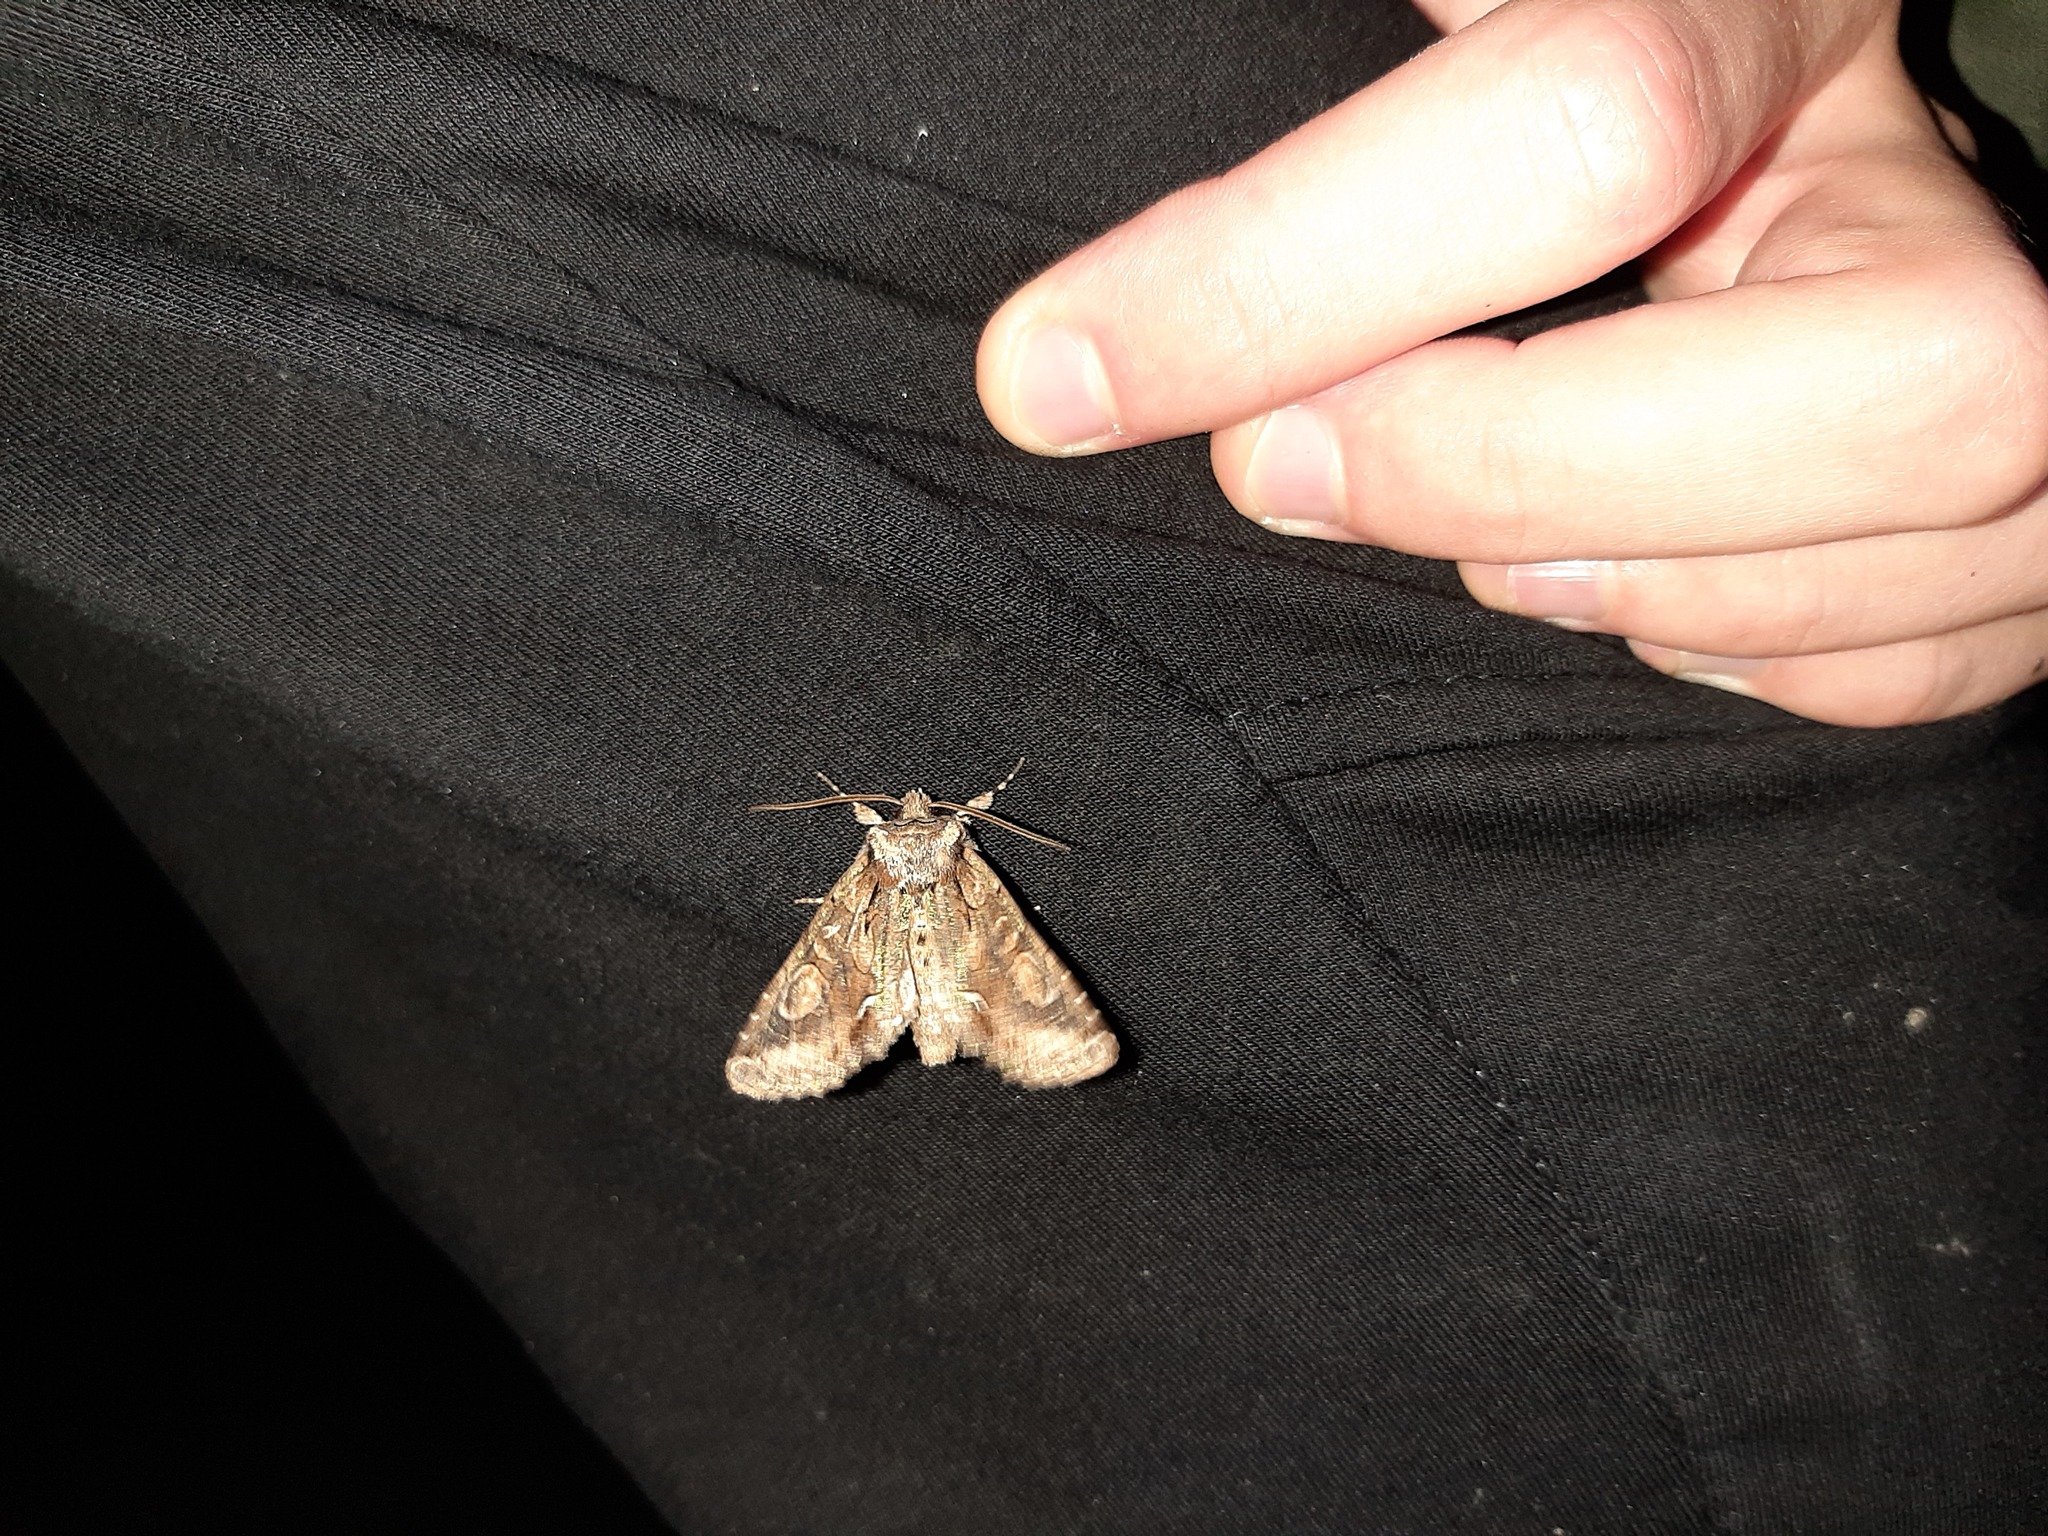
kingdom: Animalia
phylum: Arthropoda
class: Insecta
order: Lepidoptera
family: Noctuidae
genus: Allophyes
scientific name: Allophyes oxyacanthae
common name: Green-brindled crescent
